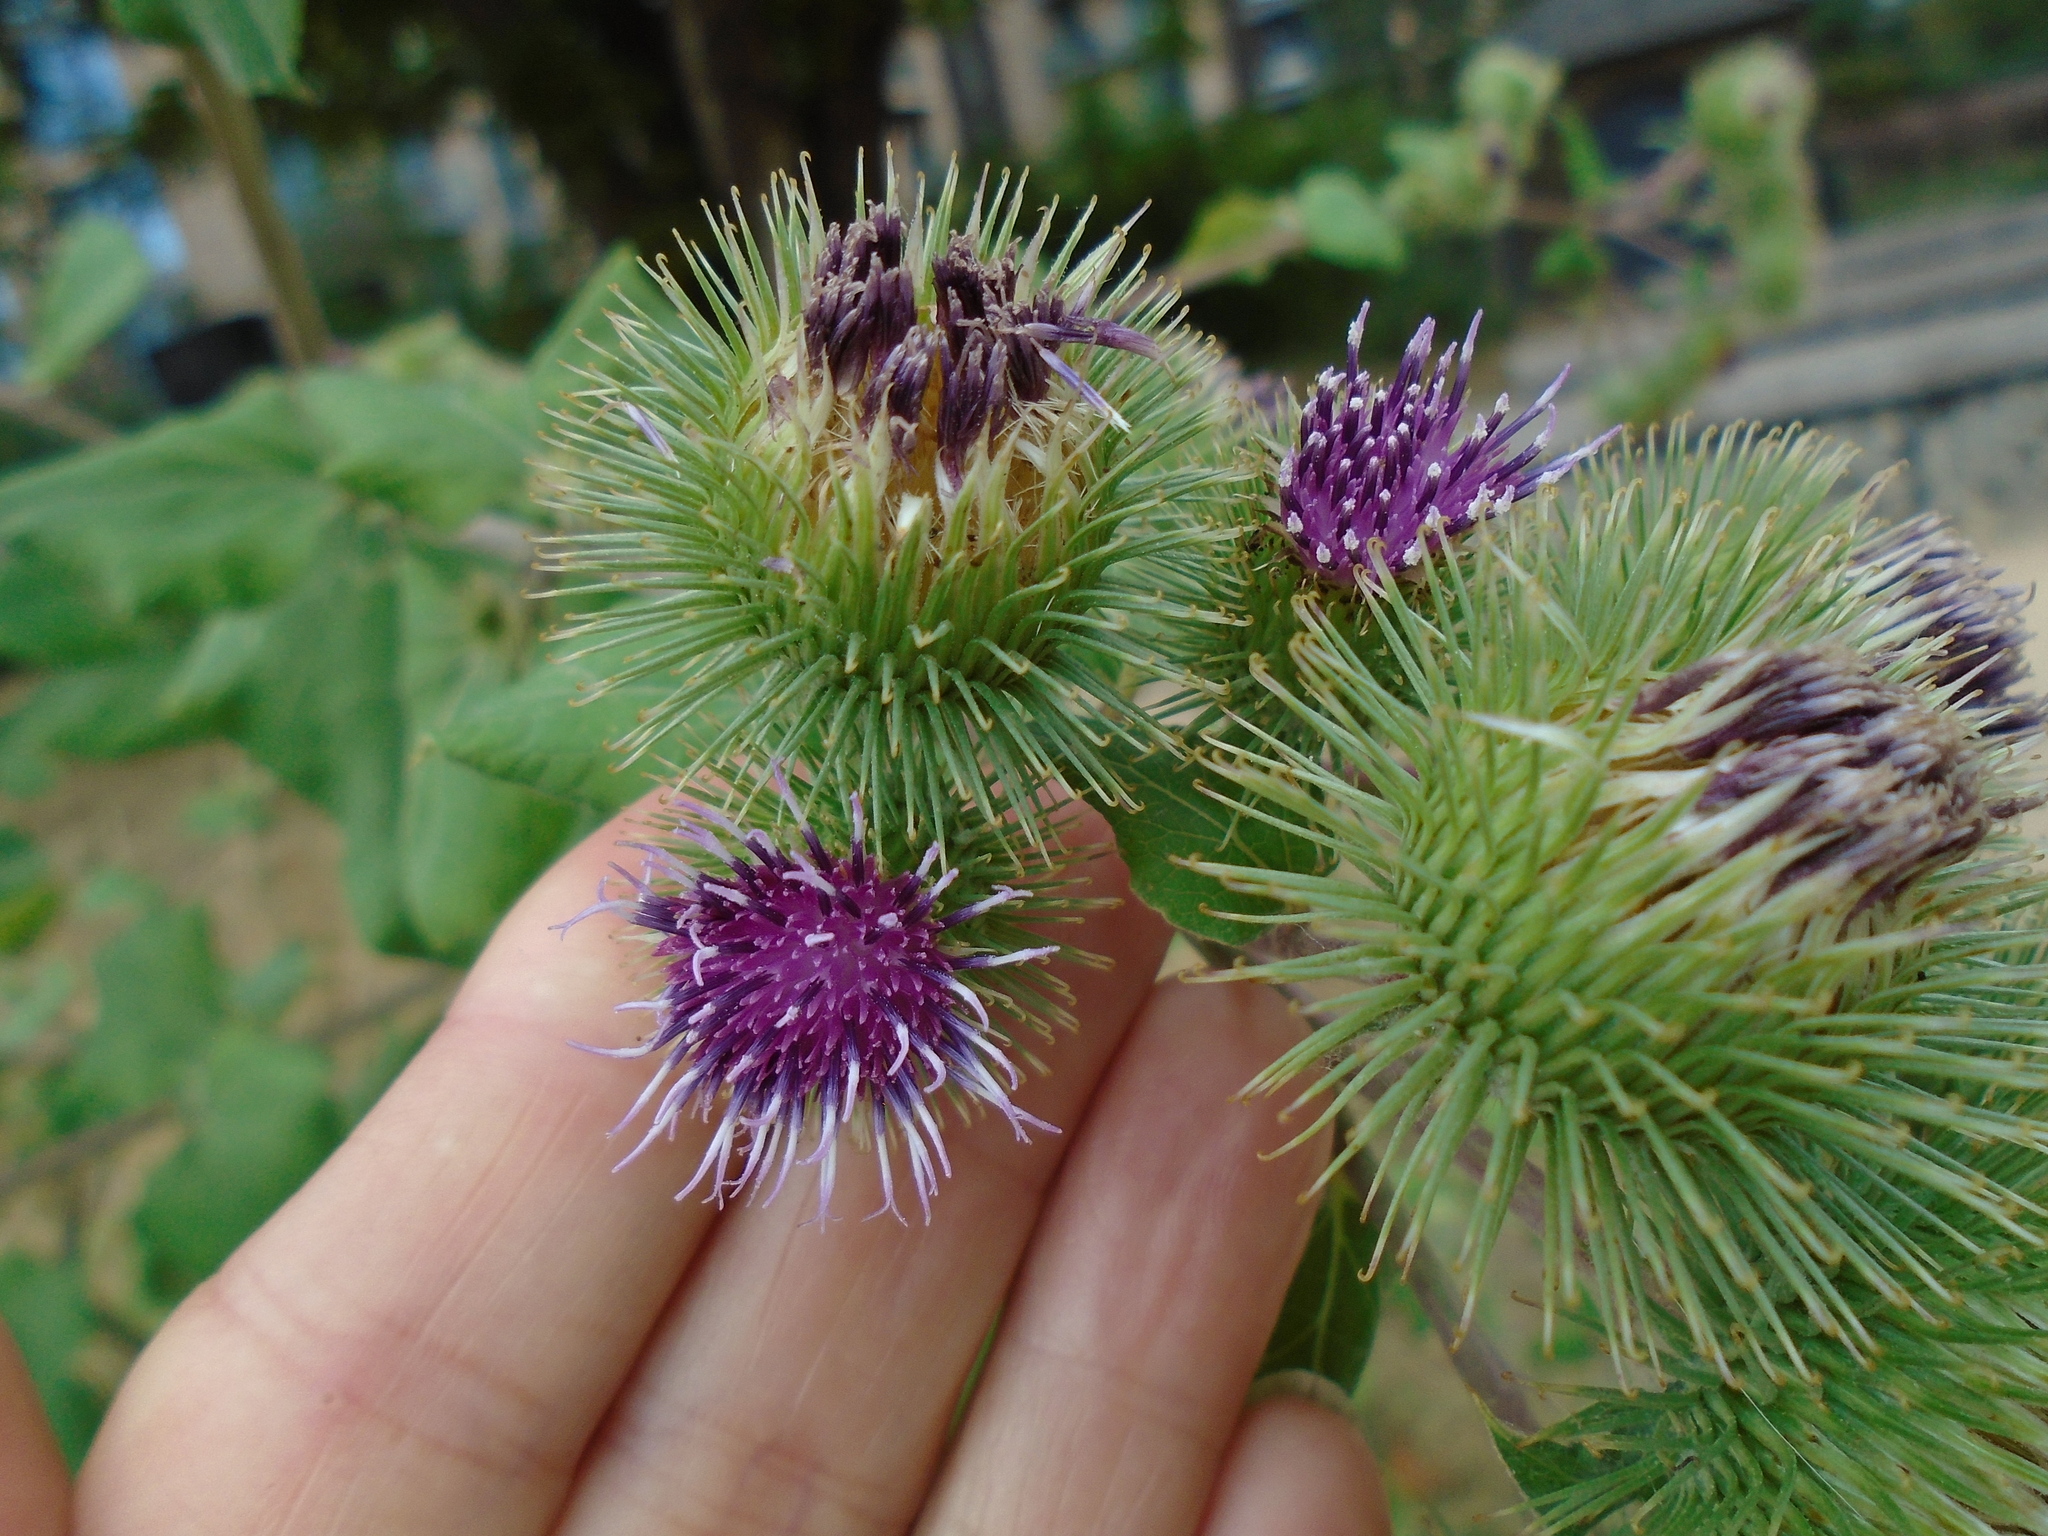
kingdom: Plantae
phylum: Tracheophyta
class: Magnoliopsida
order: Asterales
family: Asteraceae
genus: Arctium
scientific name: Arctium lappa
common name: Greater burdock
